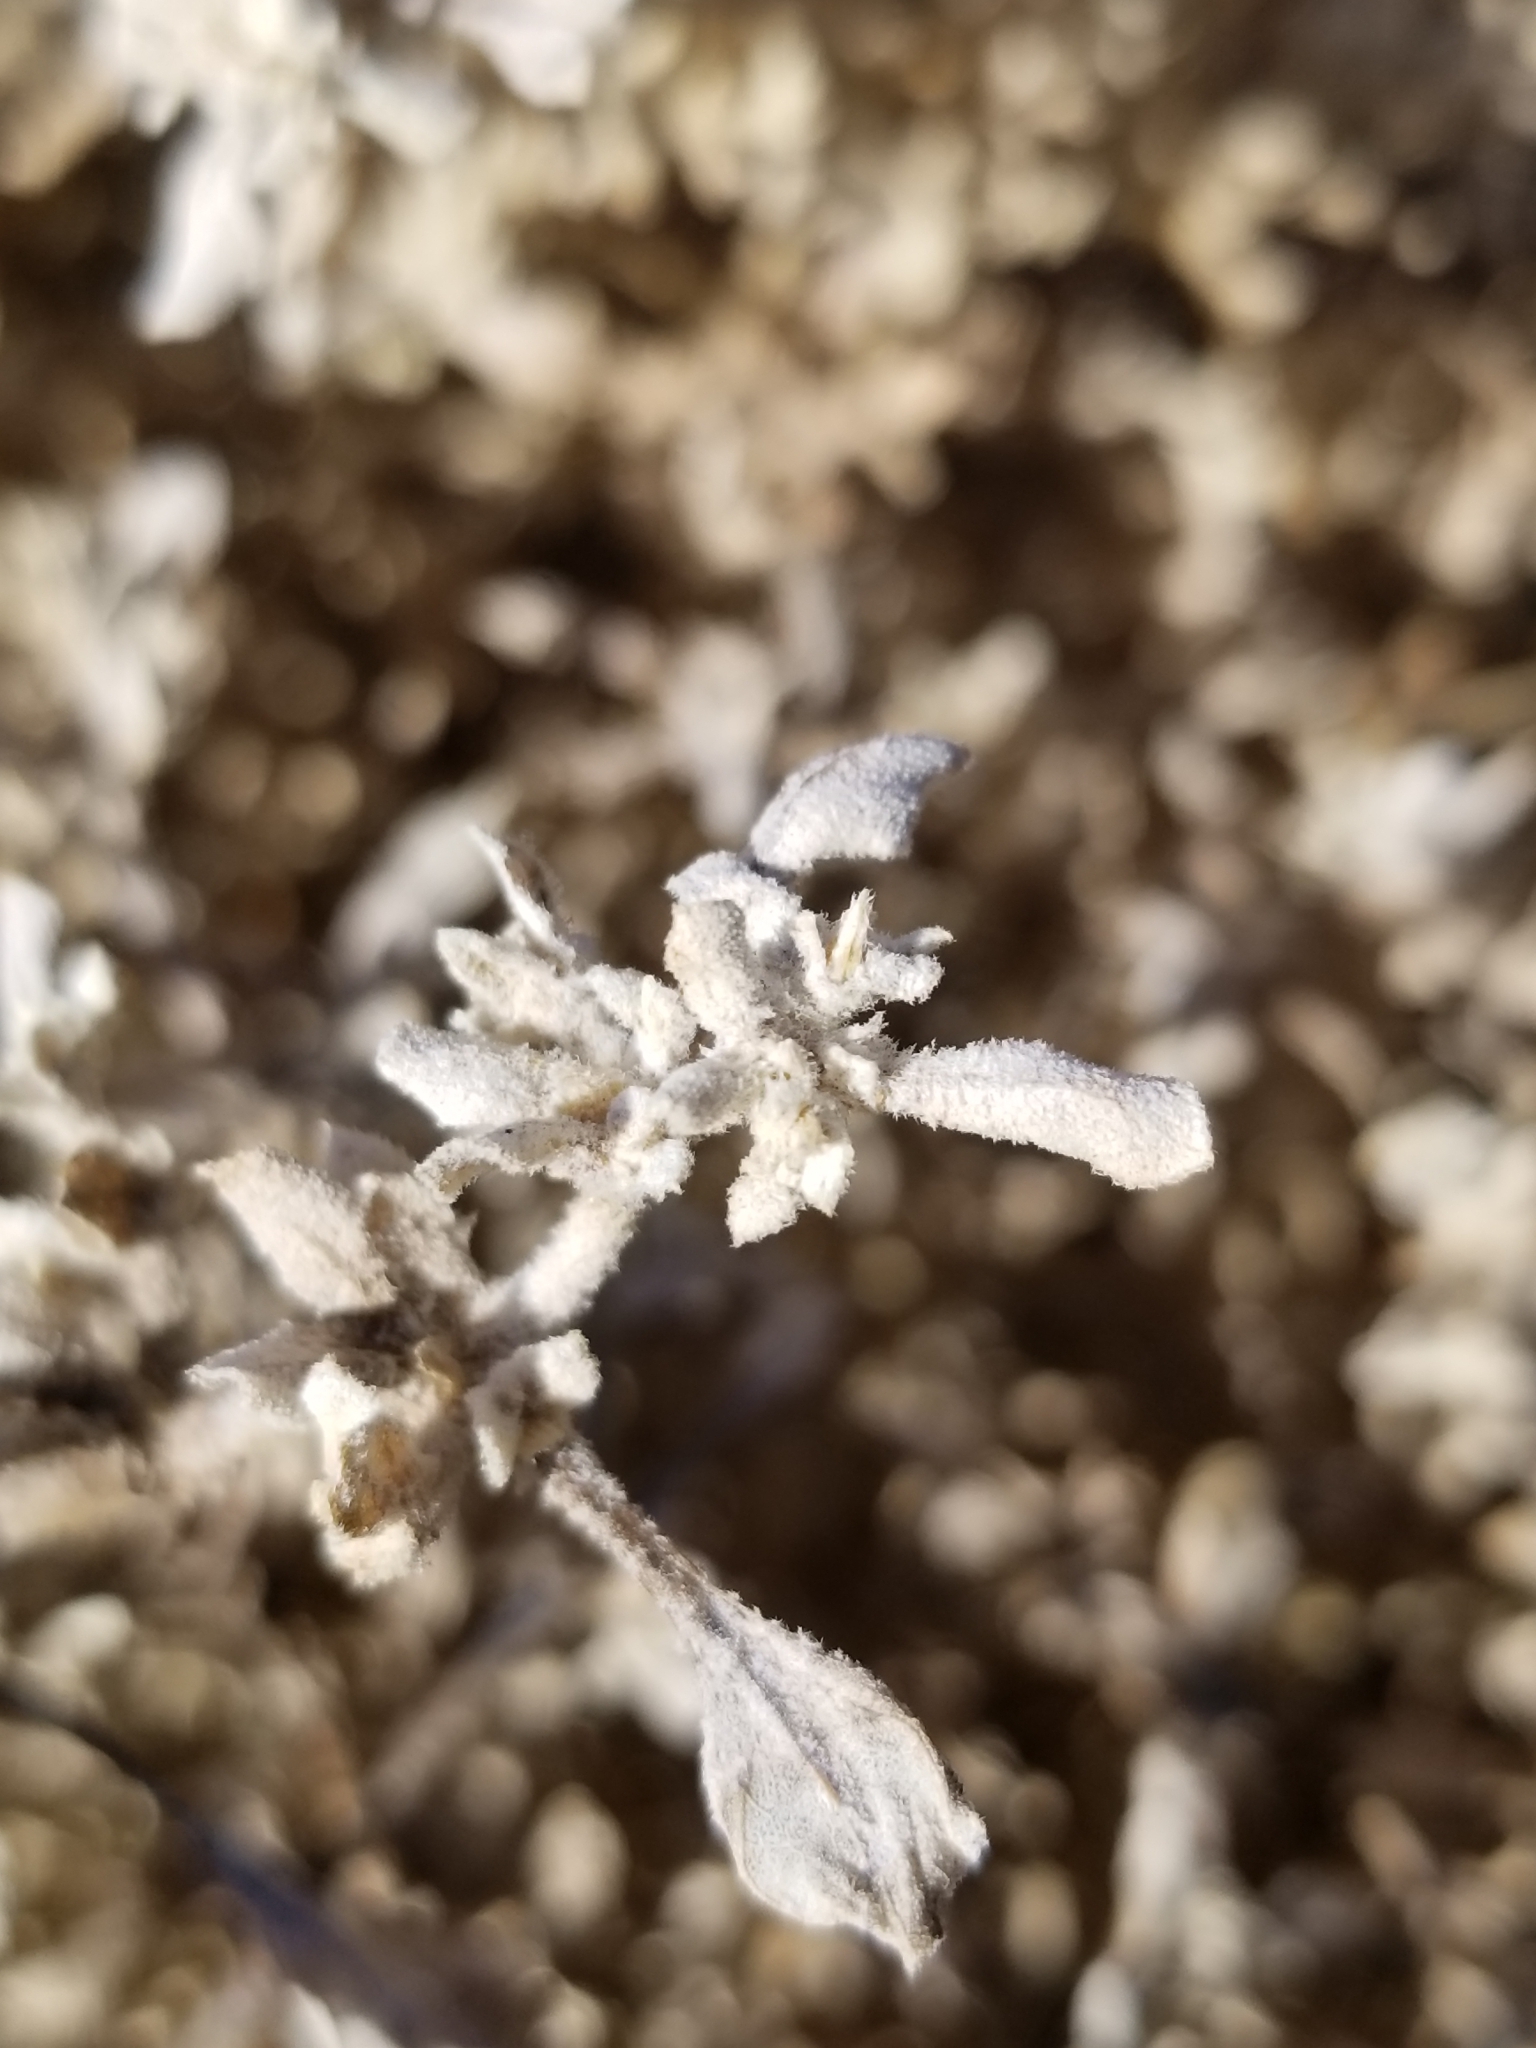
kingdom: Plantae
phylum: Tracheophyta
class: Magnoliopsida
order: Caryophyllales
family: Amaranthaceae
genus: Tidestromia
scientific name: Tidestromia lanuginosa
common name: Woolly tidestromia
